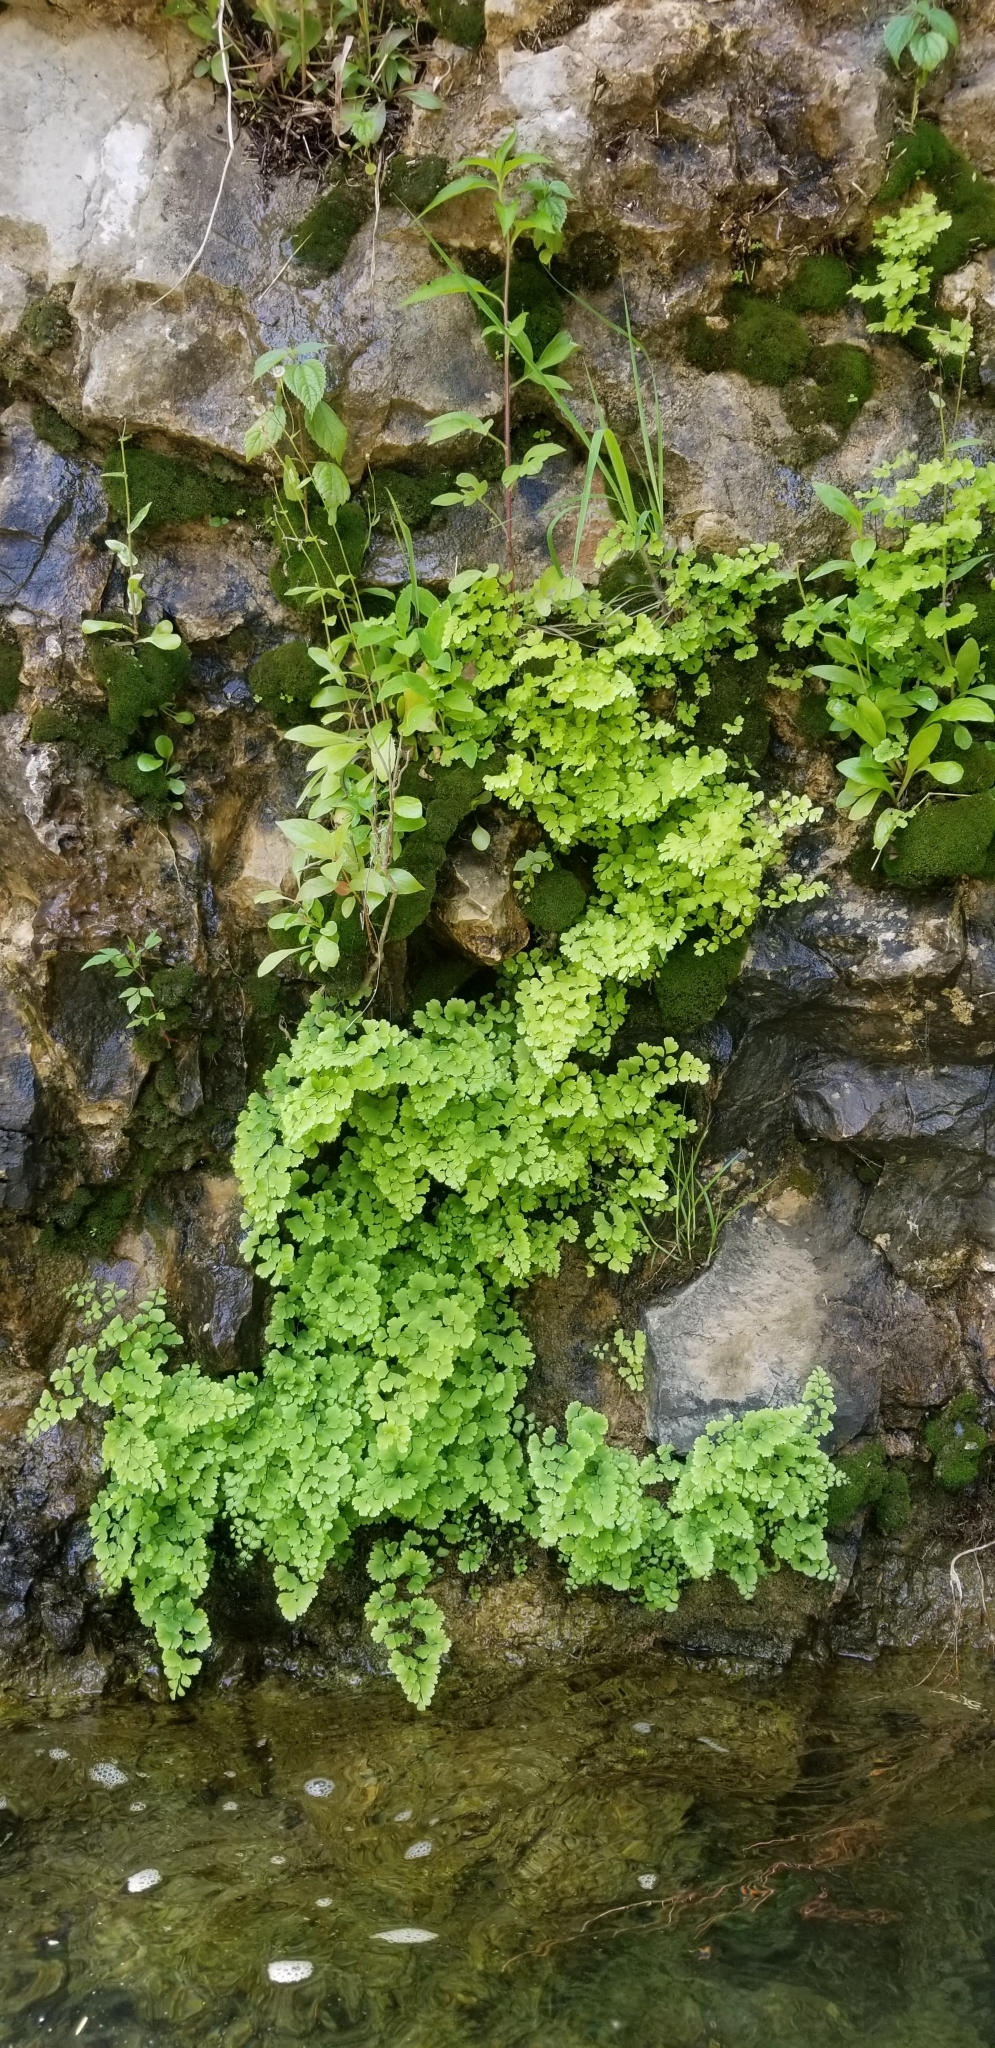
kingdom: Plantae
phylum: Tracheophyta
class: Polypodiopsida
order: Polypodiales
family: Pteridaceae
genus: Adiantum
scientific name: Adiantum capillus-veneris
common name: Maidenhair fern
